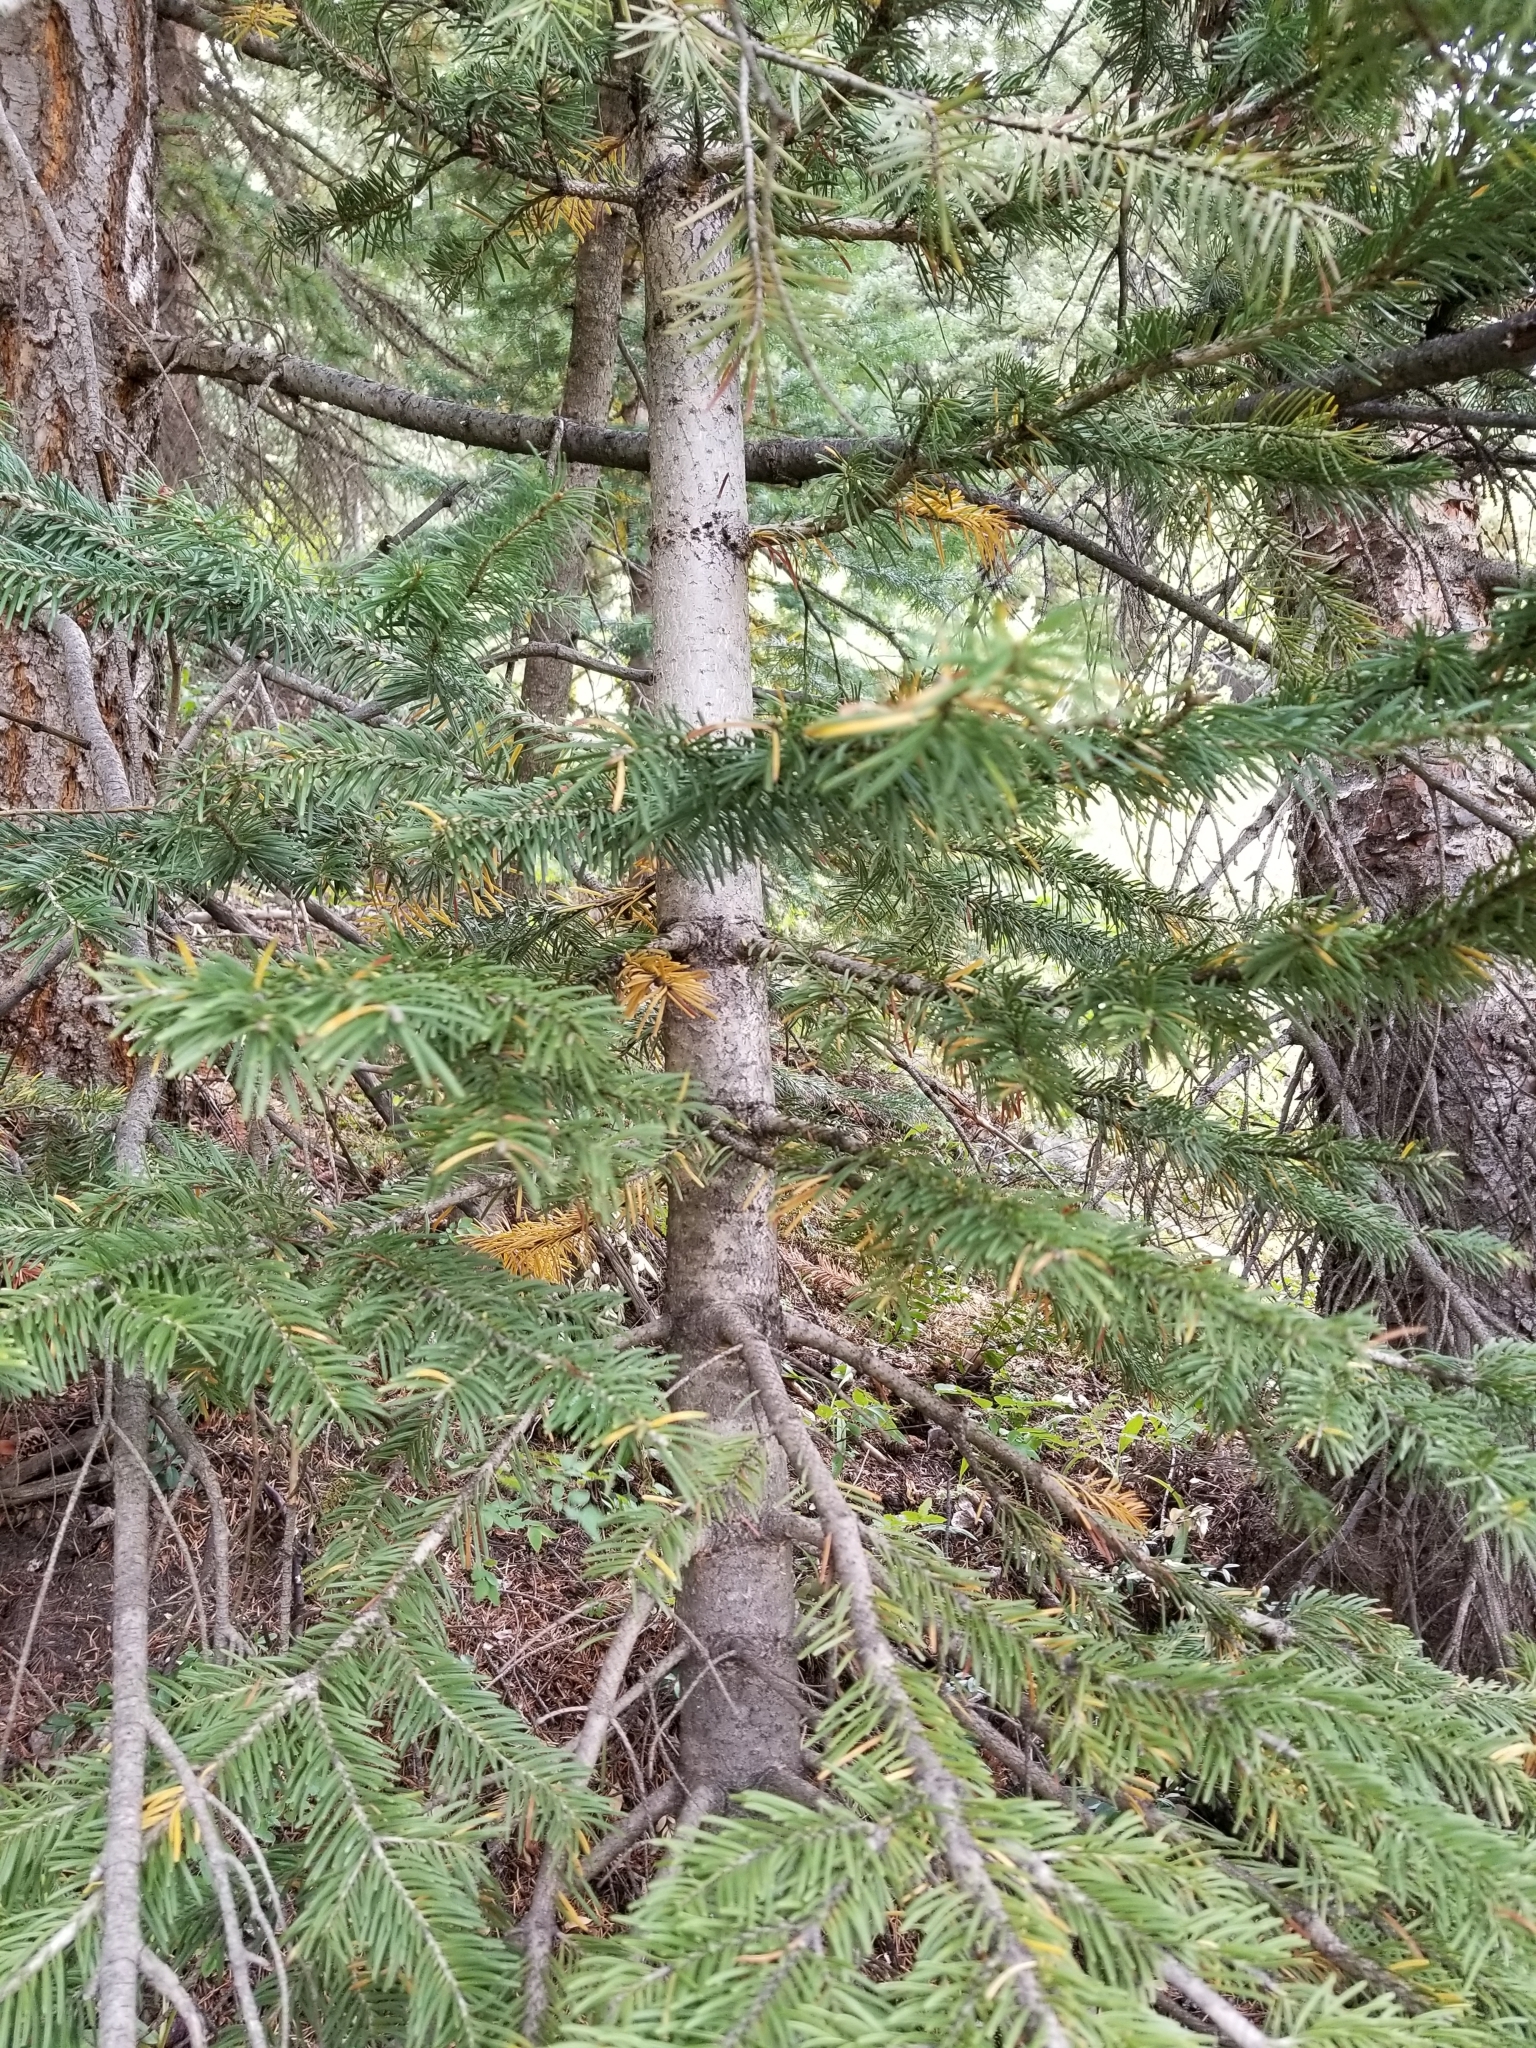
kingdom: Plantae
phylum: Tracheophyta
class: Pinopsida
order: Pinales
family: Pinaceae
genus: Pseudotsuga
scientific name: Pseudotsuga menziesii
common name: Douglas fir
